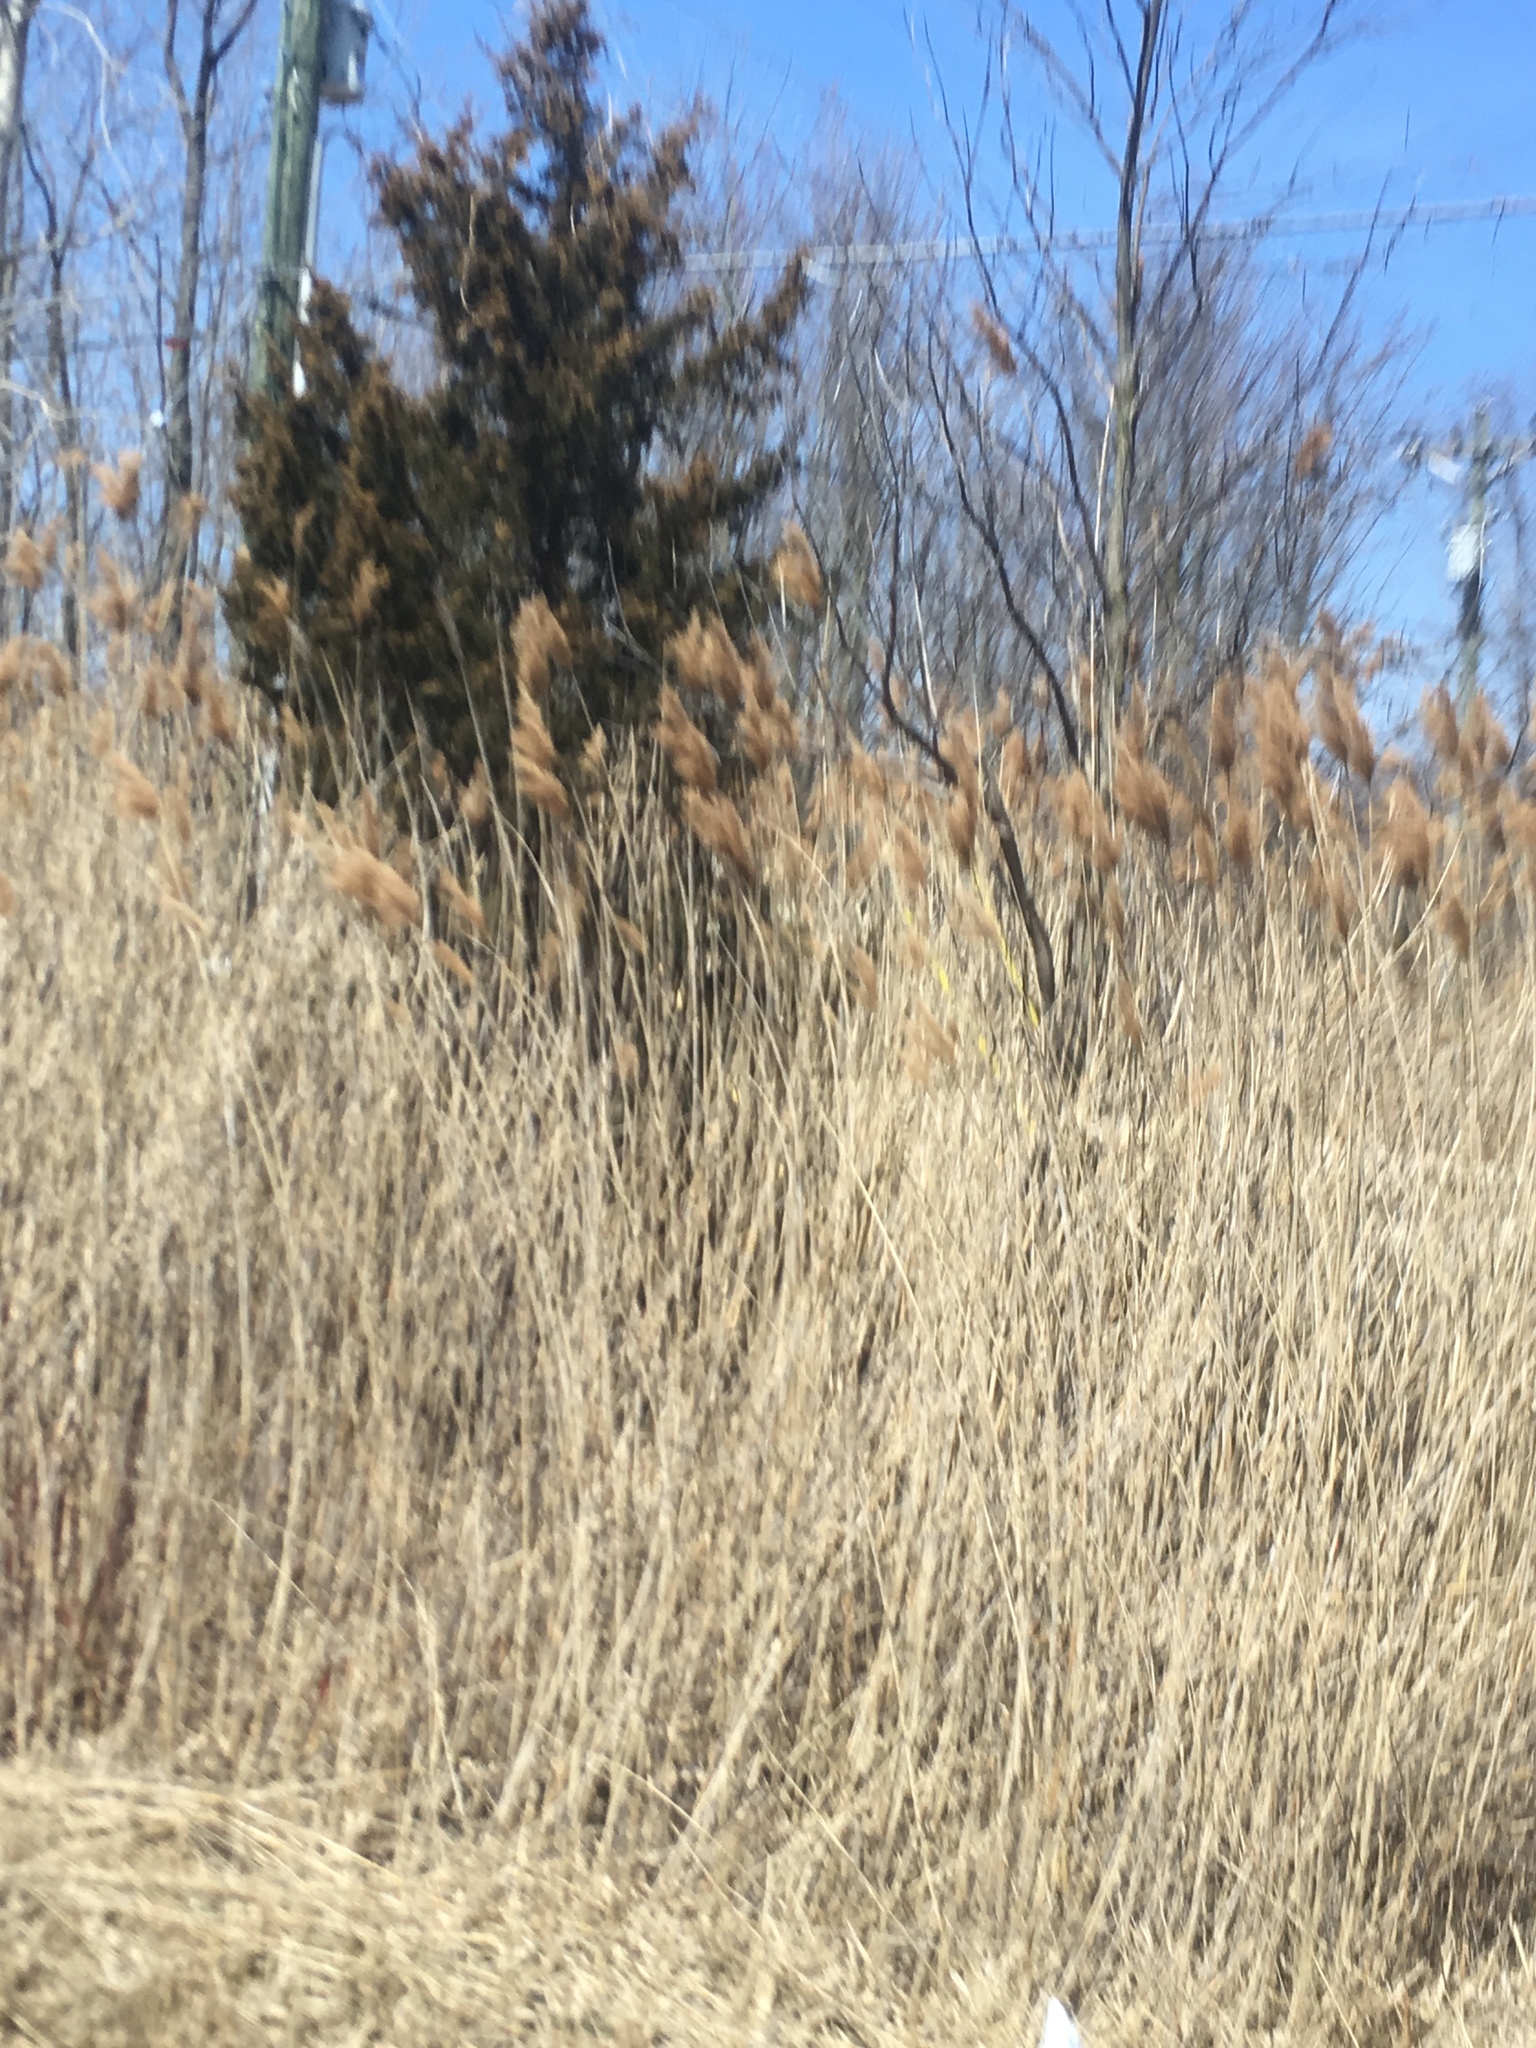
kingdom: Plantae
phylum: Tracheophyta
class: Liliopsida
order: Poales
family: Poaceae
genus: Phragmites
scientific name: Phragmites australis
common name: Common reed
